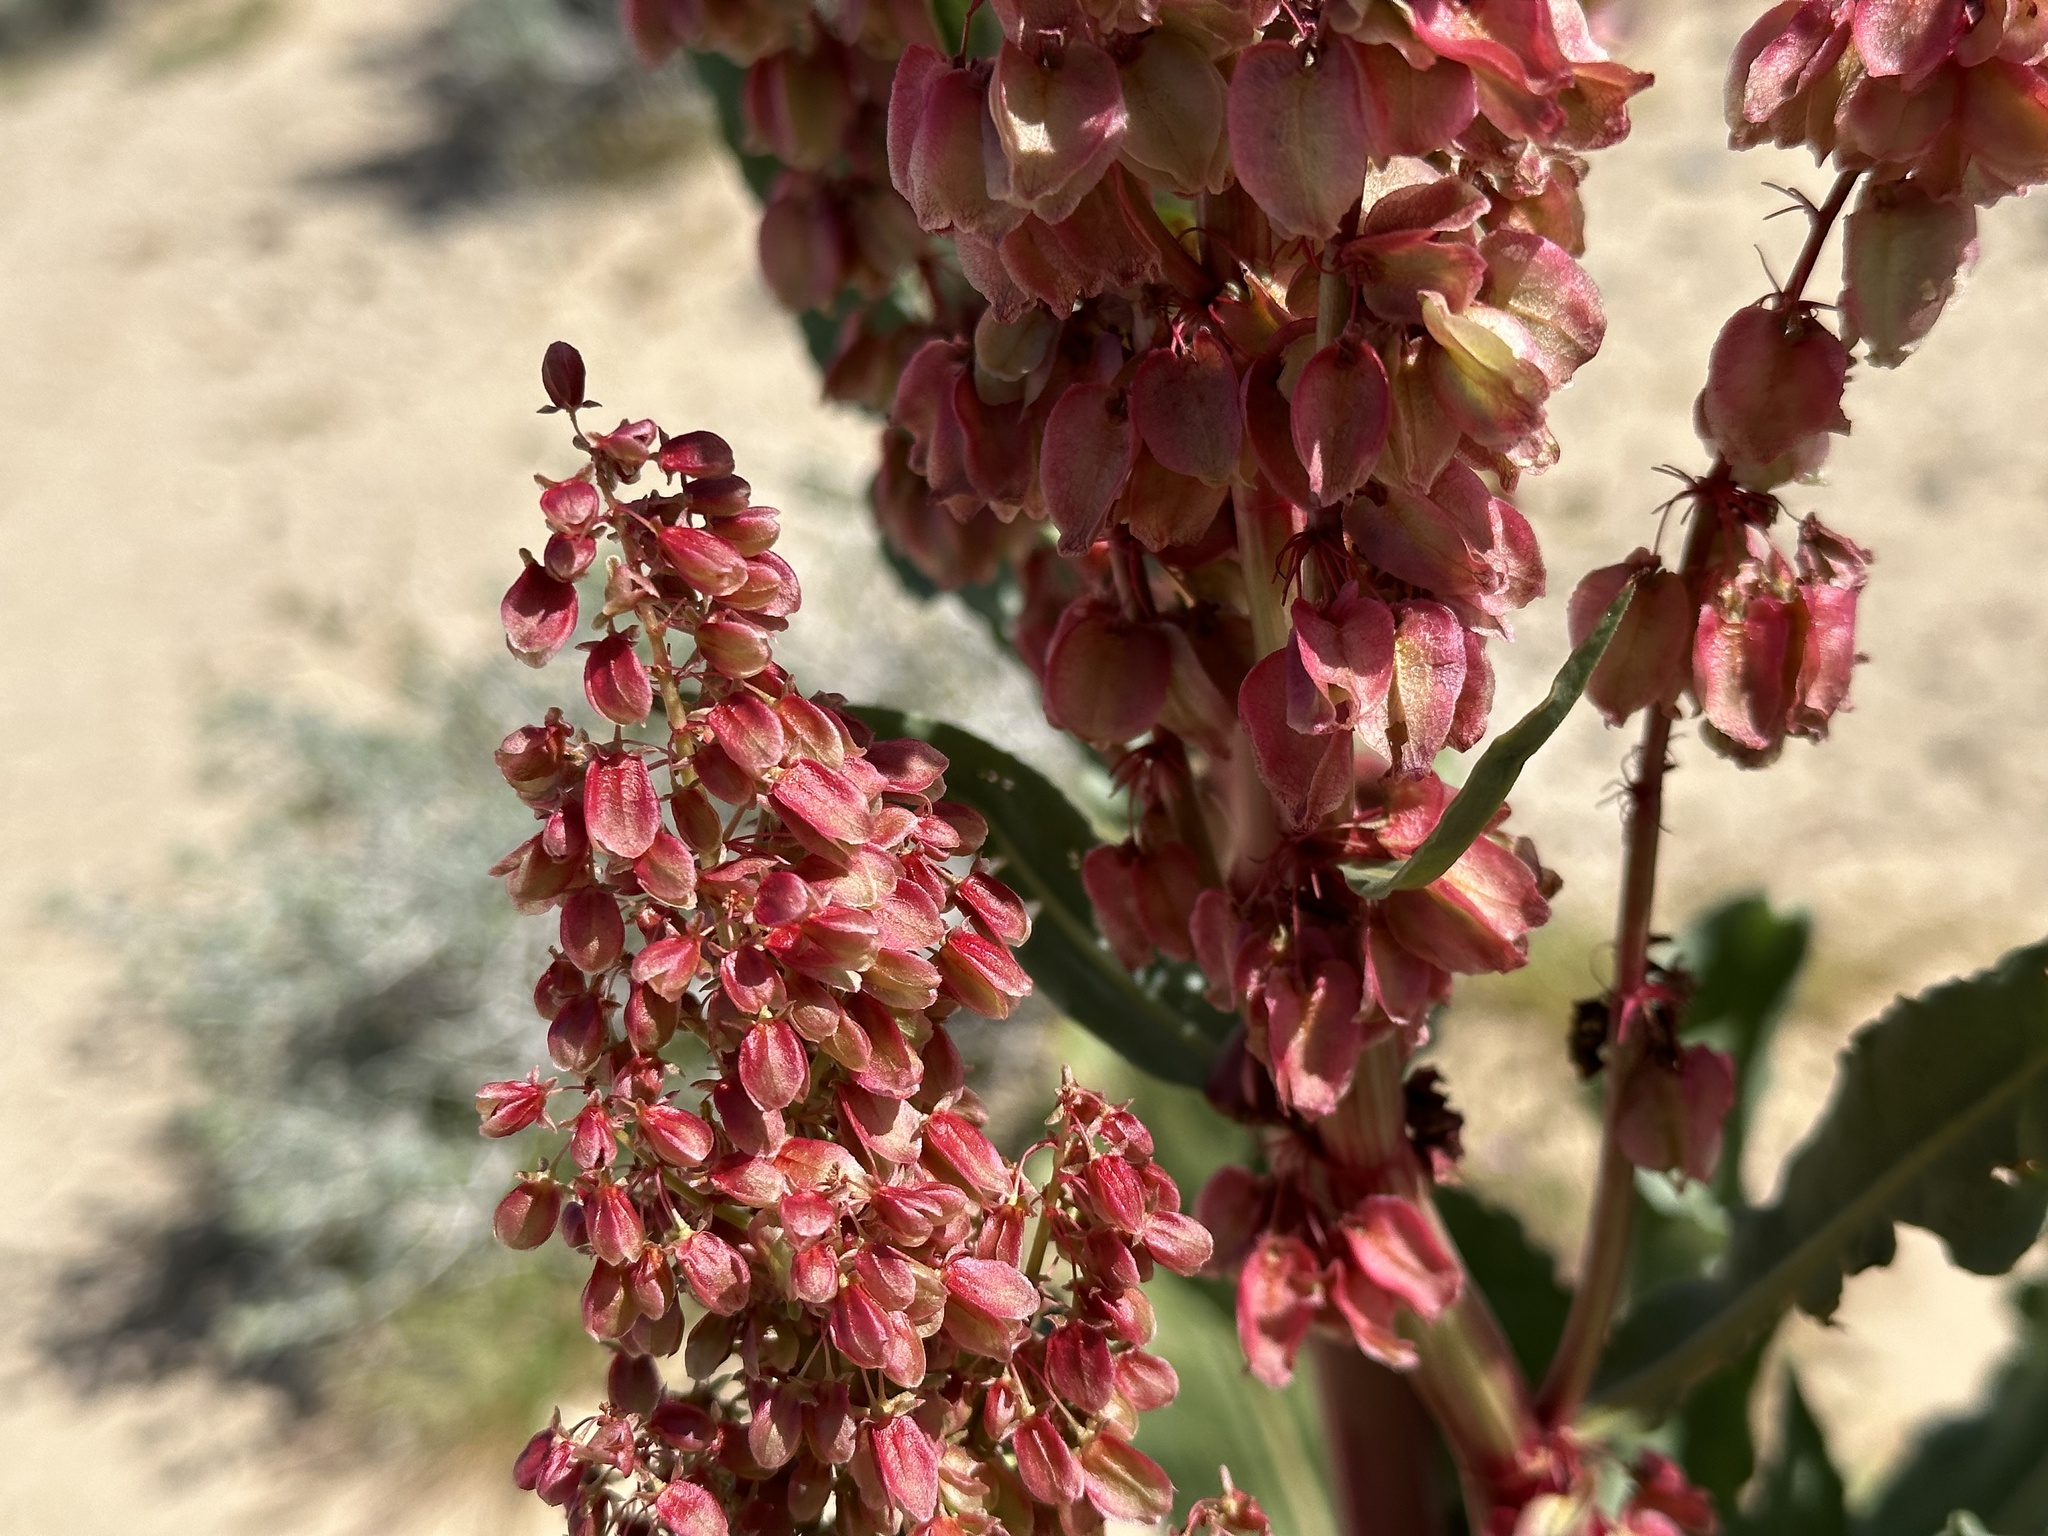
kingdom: Plantae
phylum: Tracheophyta
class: Magnoliopsida
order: Caryophyllales
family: Polygonaceae
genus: Rumex
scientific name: Rumex hymenosepalus
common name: Ganagra
